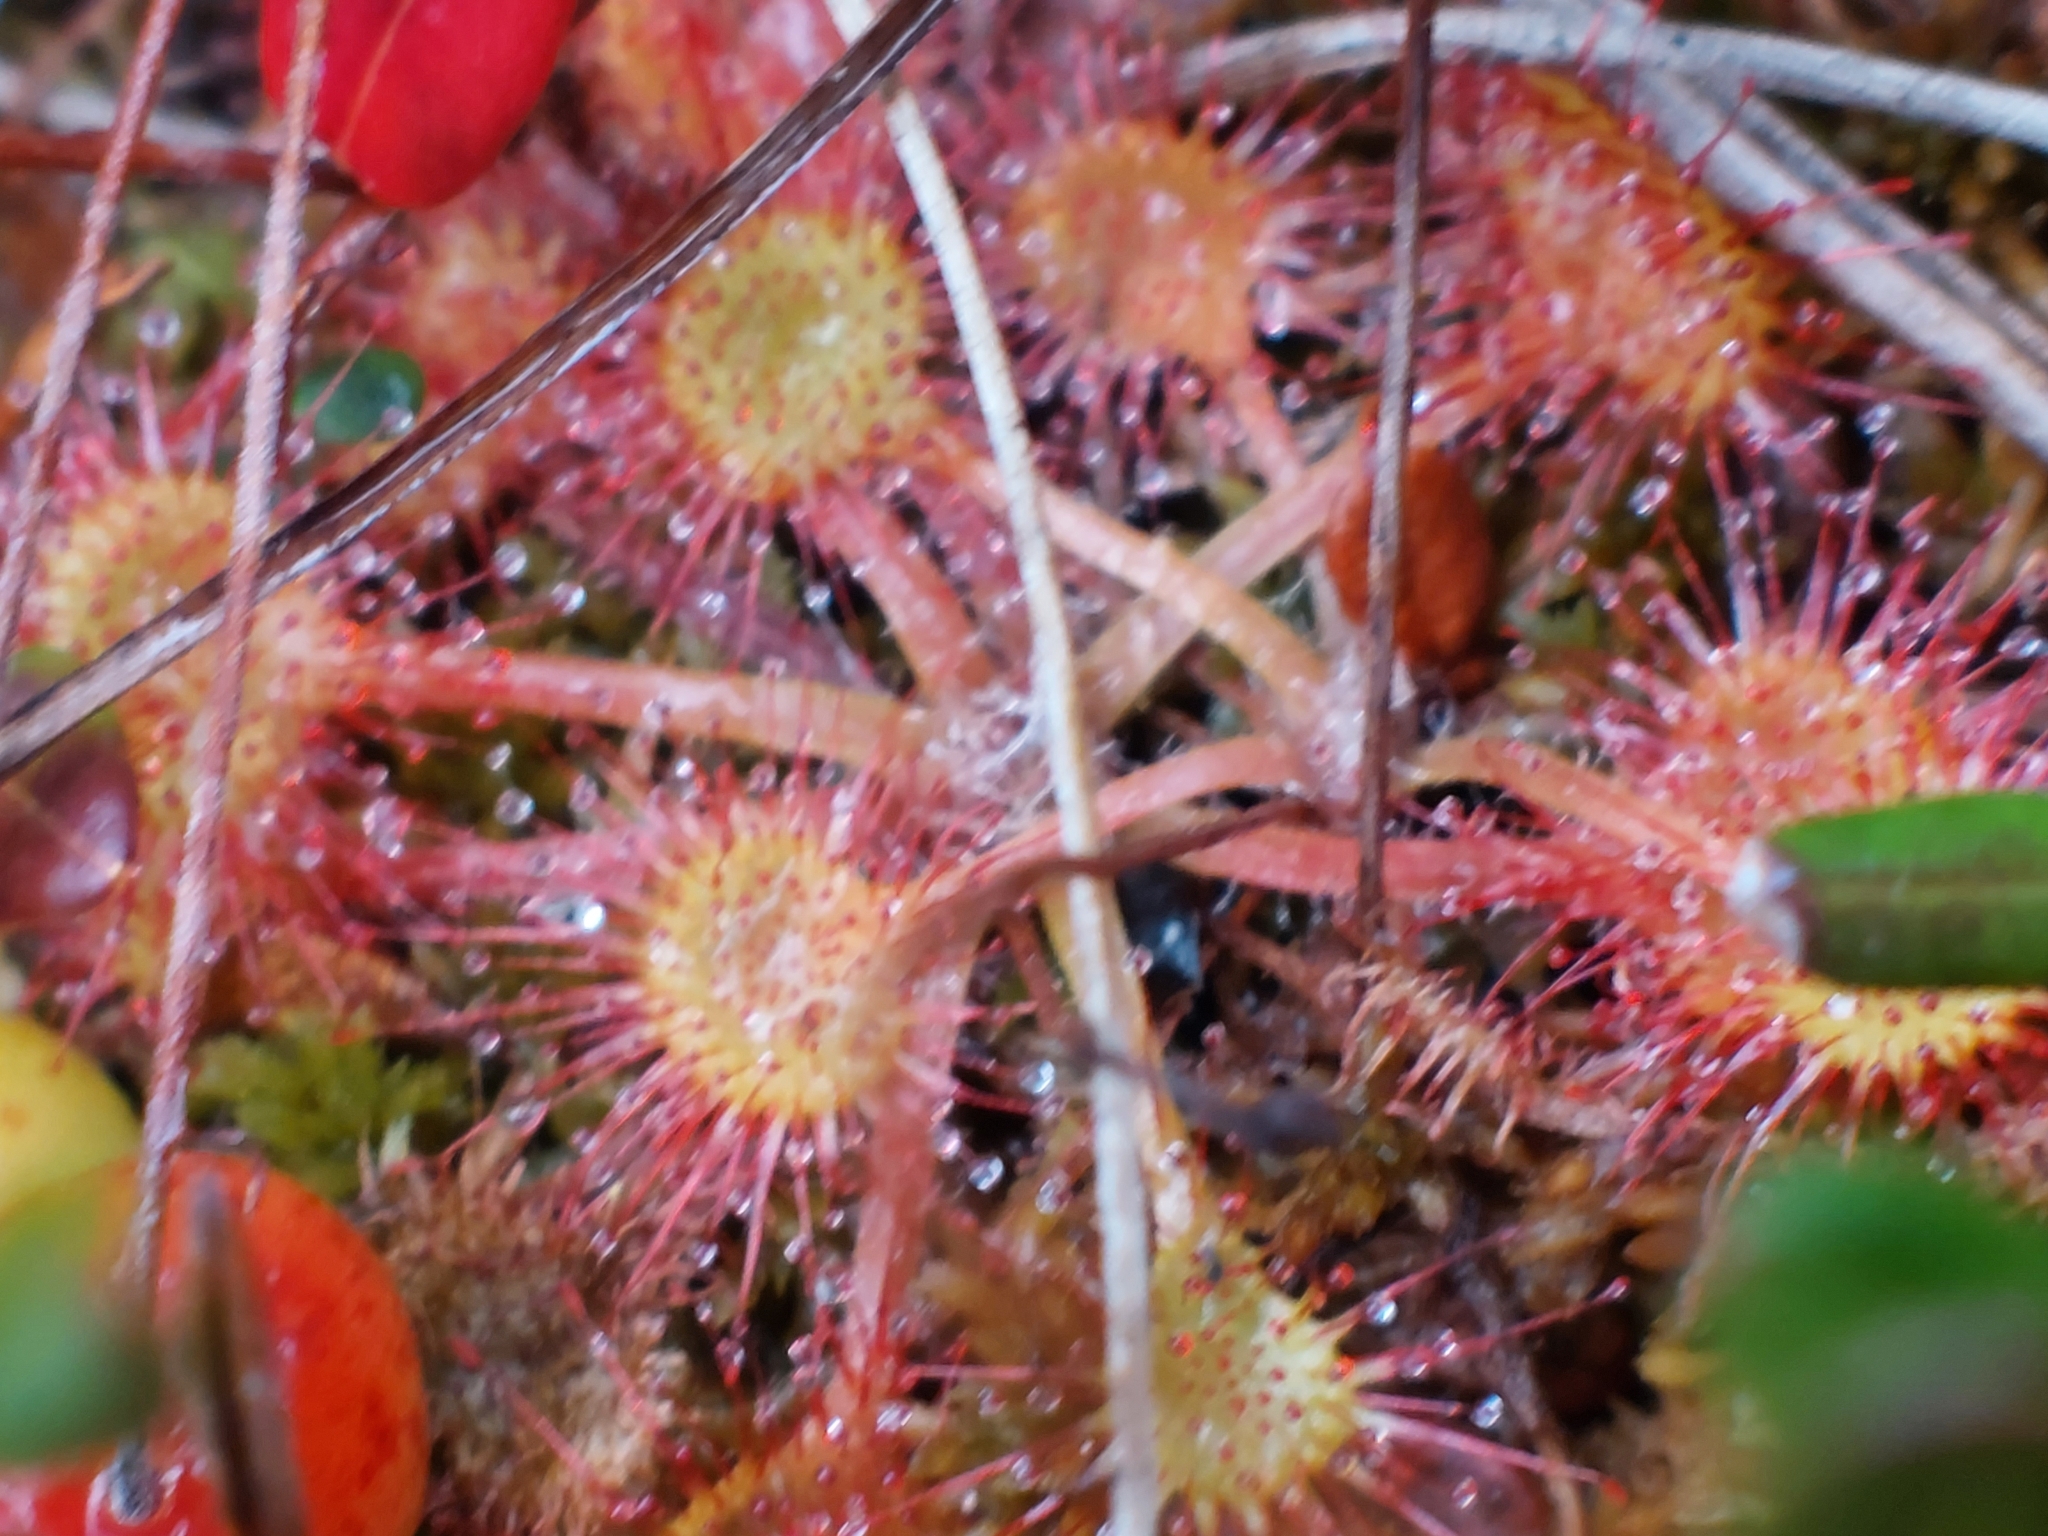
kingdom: Plantae
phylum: Tracheophyta
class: Magnoliopsida
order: Caryophyllales
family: Droseraceae
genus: Drosera
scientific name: Drosera rotundifolia
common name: Round-leaved sundew
